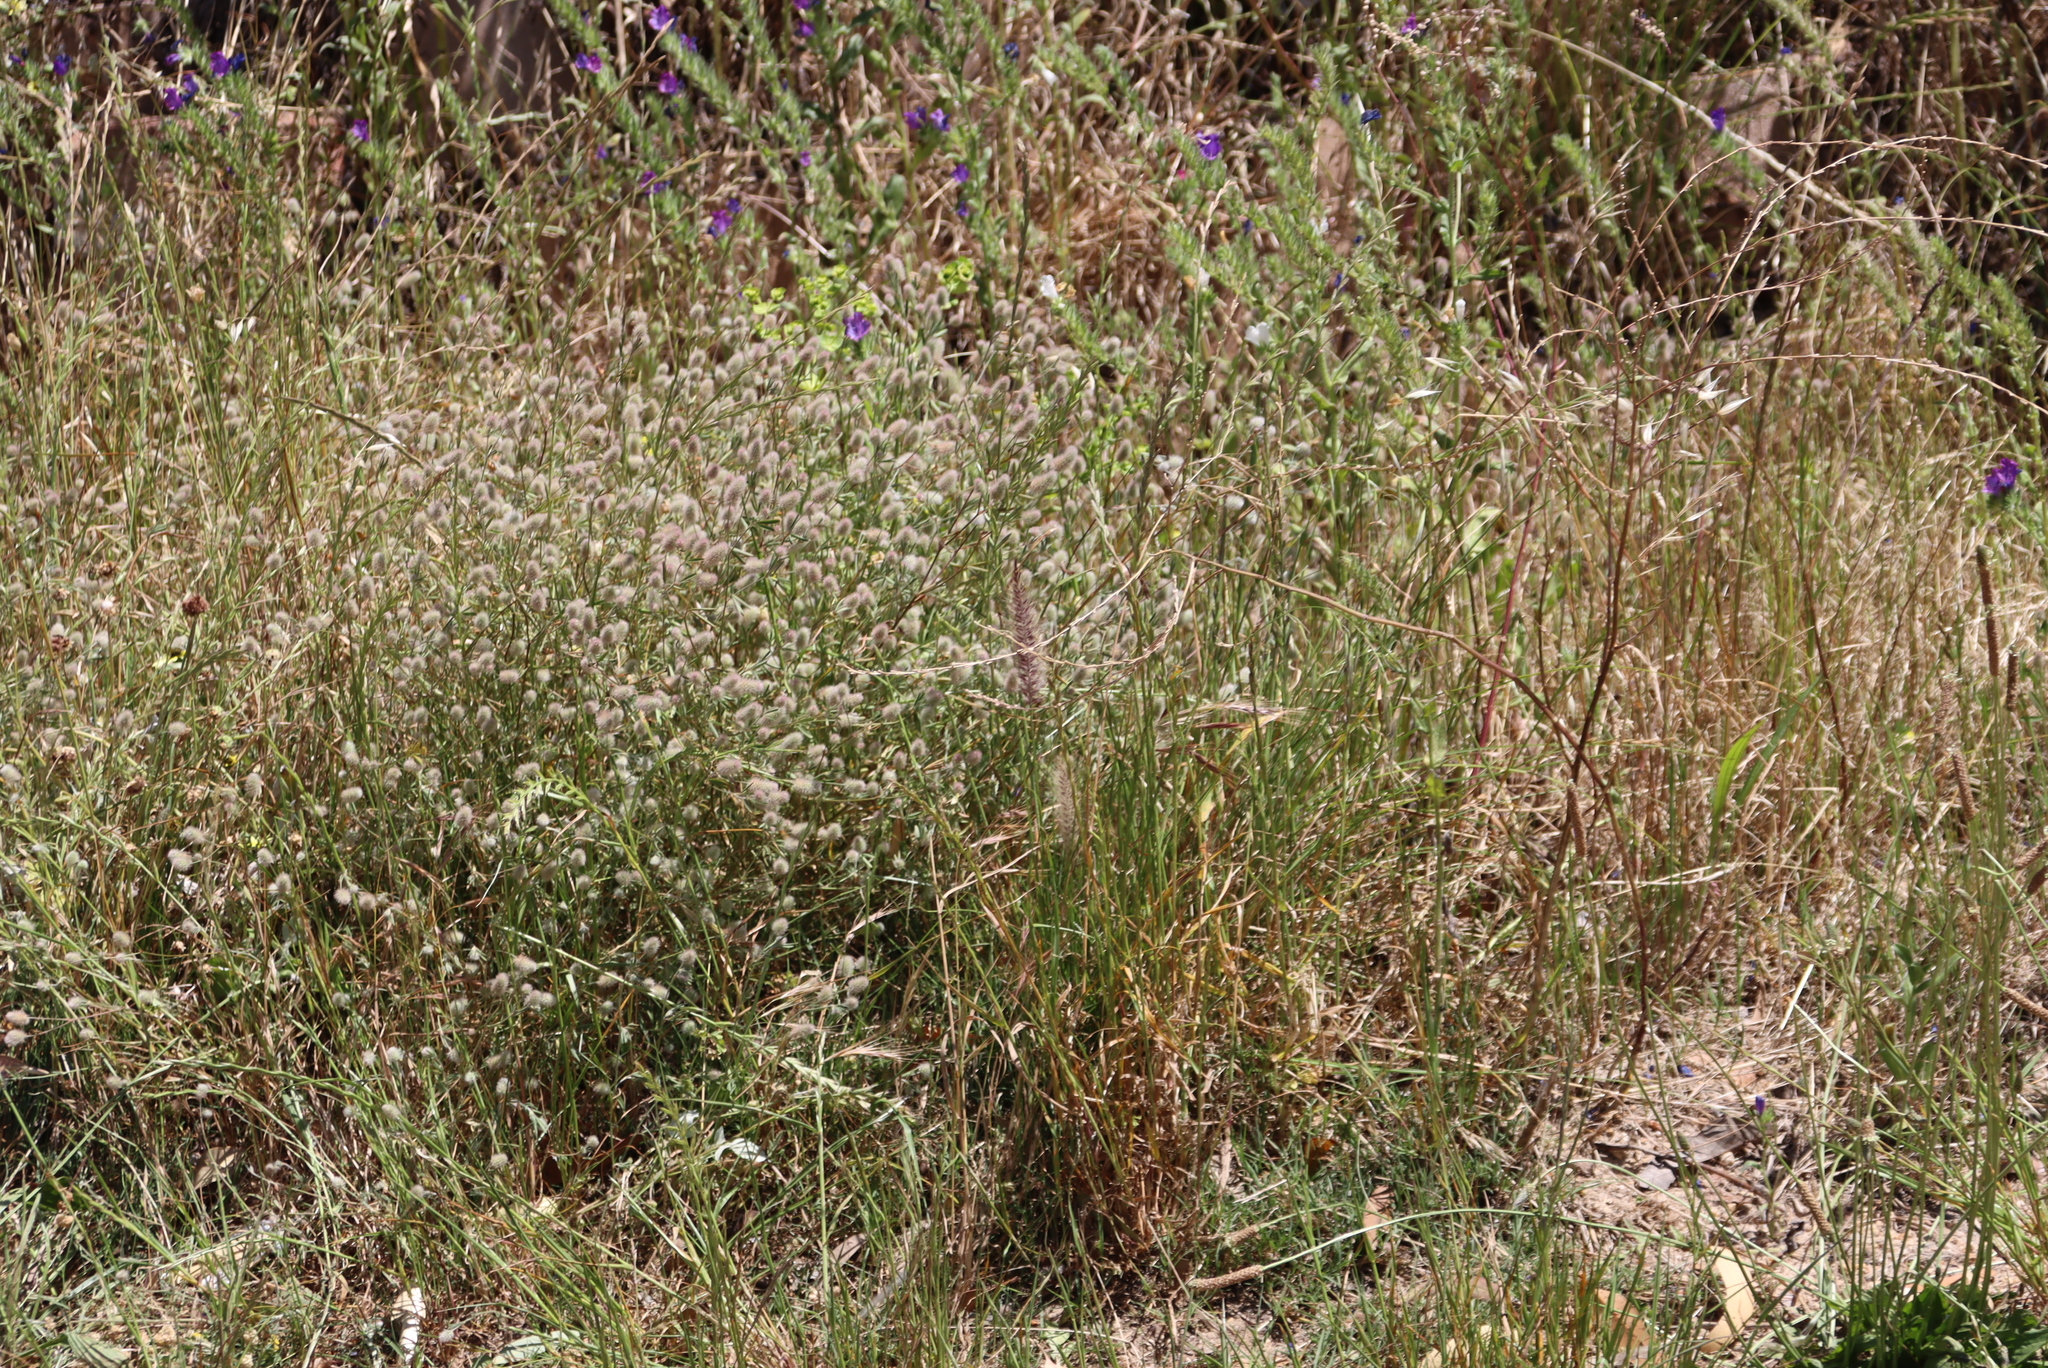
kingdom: Plantae
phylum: Tracheophyta
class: Magnoliopsida
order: Fabales
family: Fabaceae
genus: Trifolium
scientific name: Trifolium arvense
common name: Hare's-foot clover
